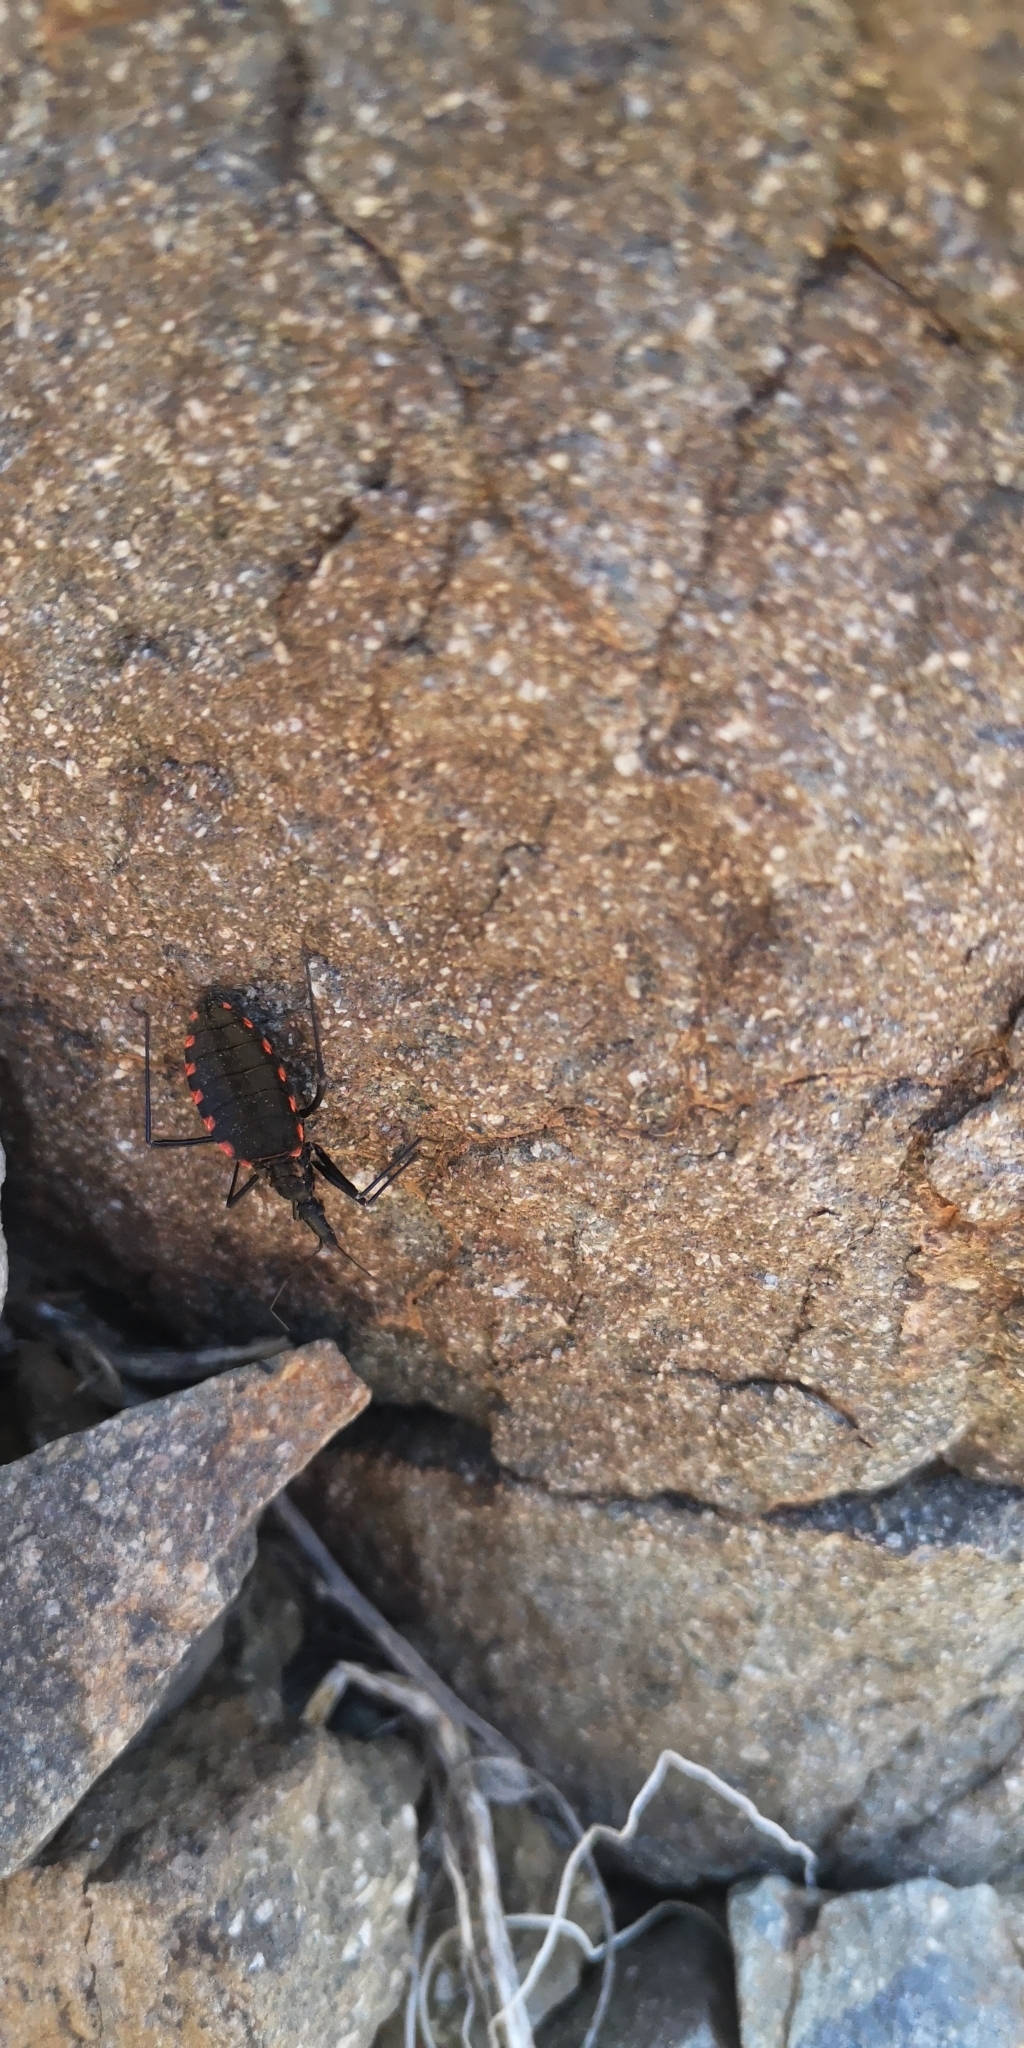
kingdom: Animalia
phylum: Arthropoda
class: Insecta
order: Hemiptera
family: Reduviidae
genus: Mepraia
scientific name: Mepraia spinolai
